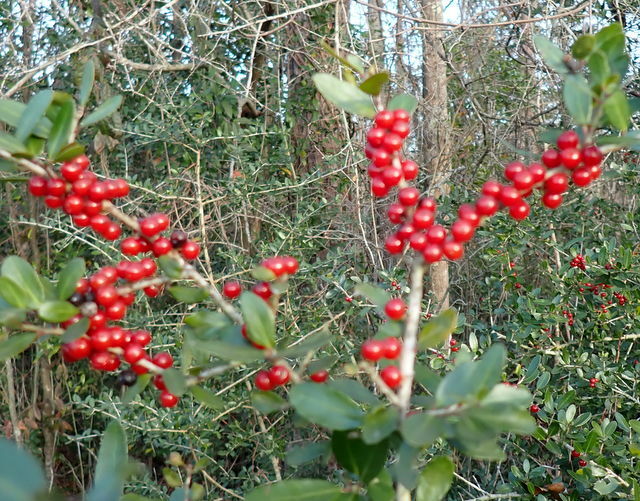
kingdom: Plantae
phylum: Tracheophyta
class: Magnoliopsida
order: Aquifoliales
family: Aquifoliaceae
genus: Ilex
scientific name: Ilex vomitoria
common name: Yaupon holly
